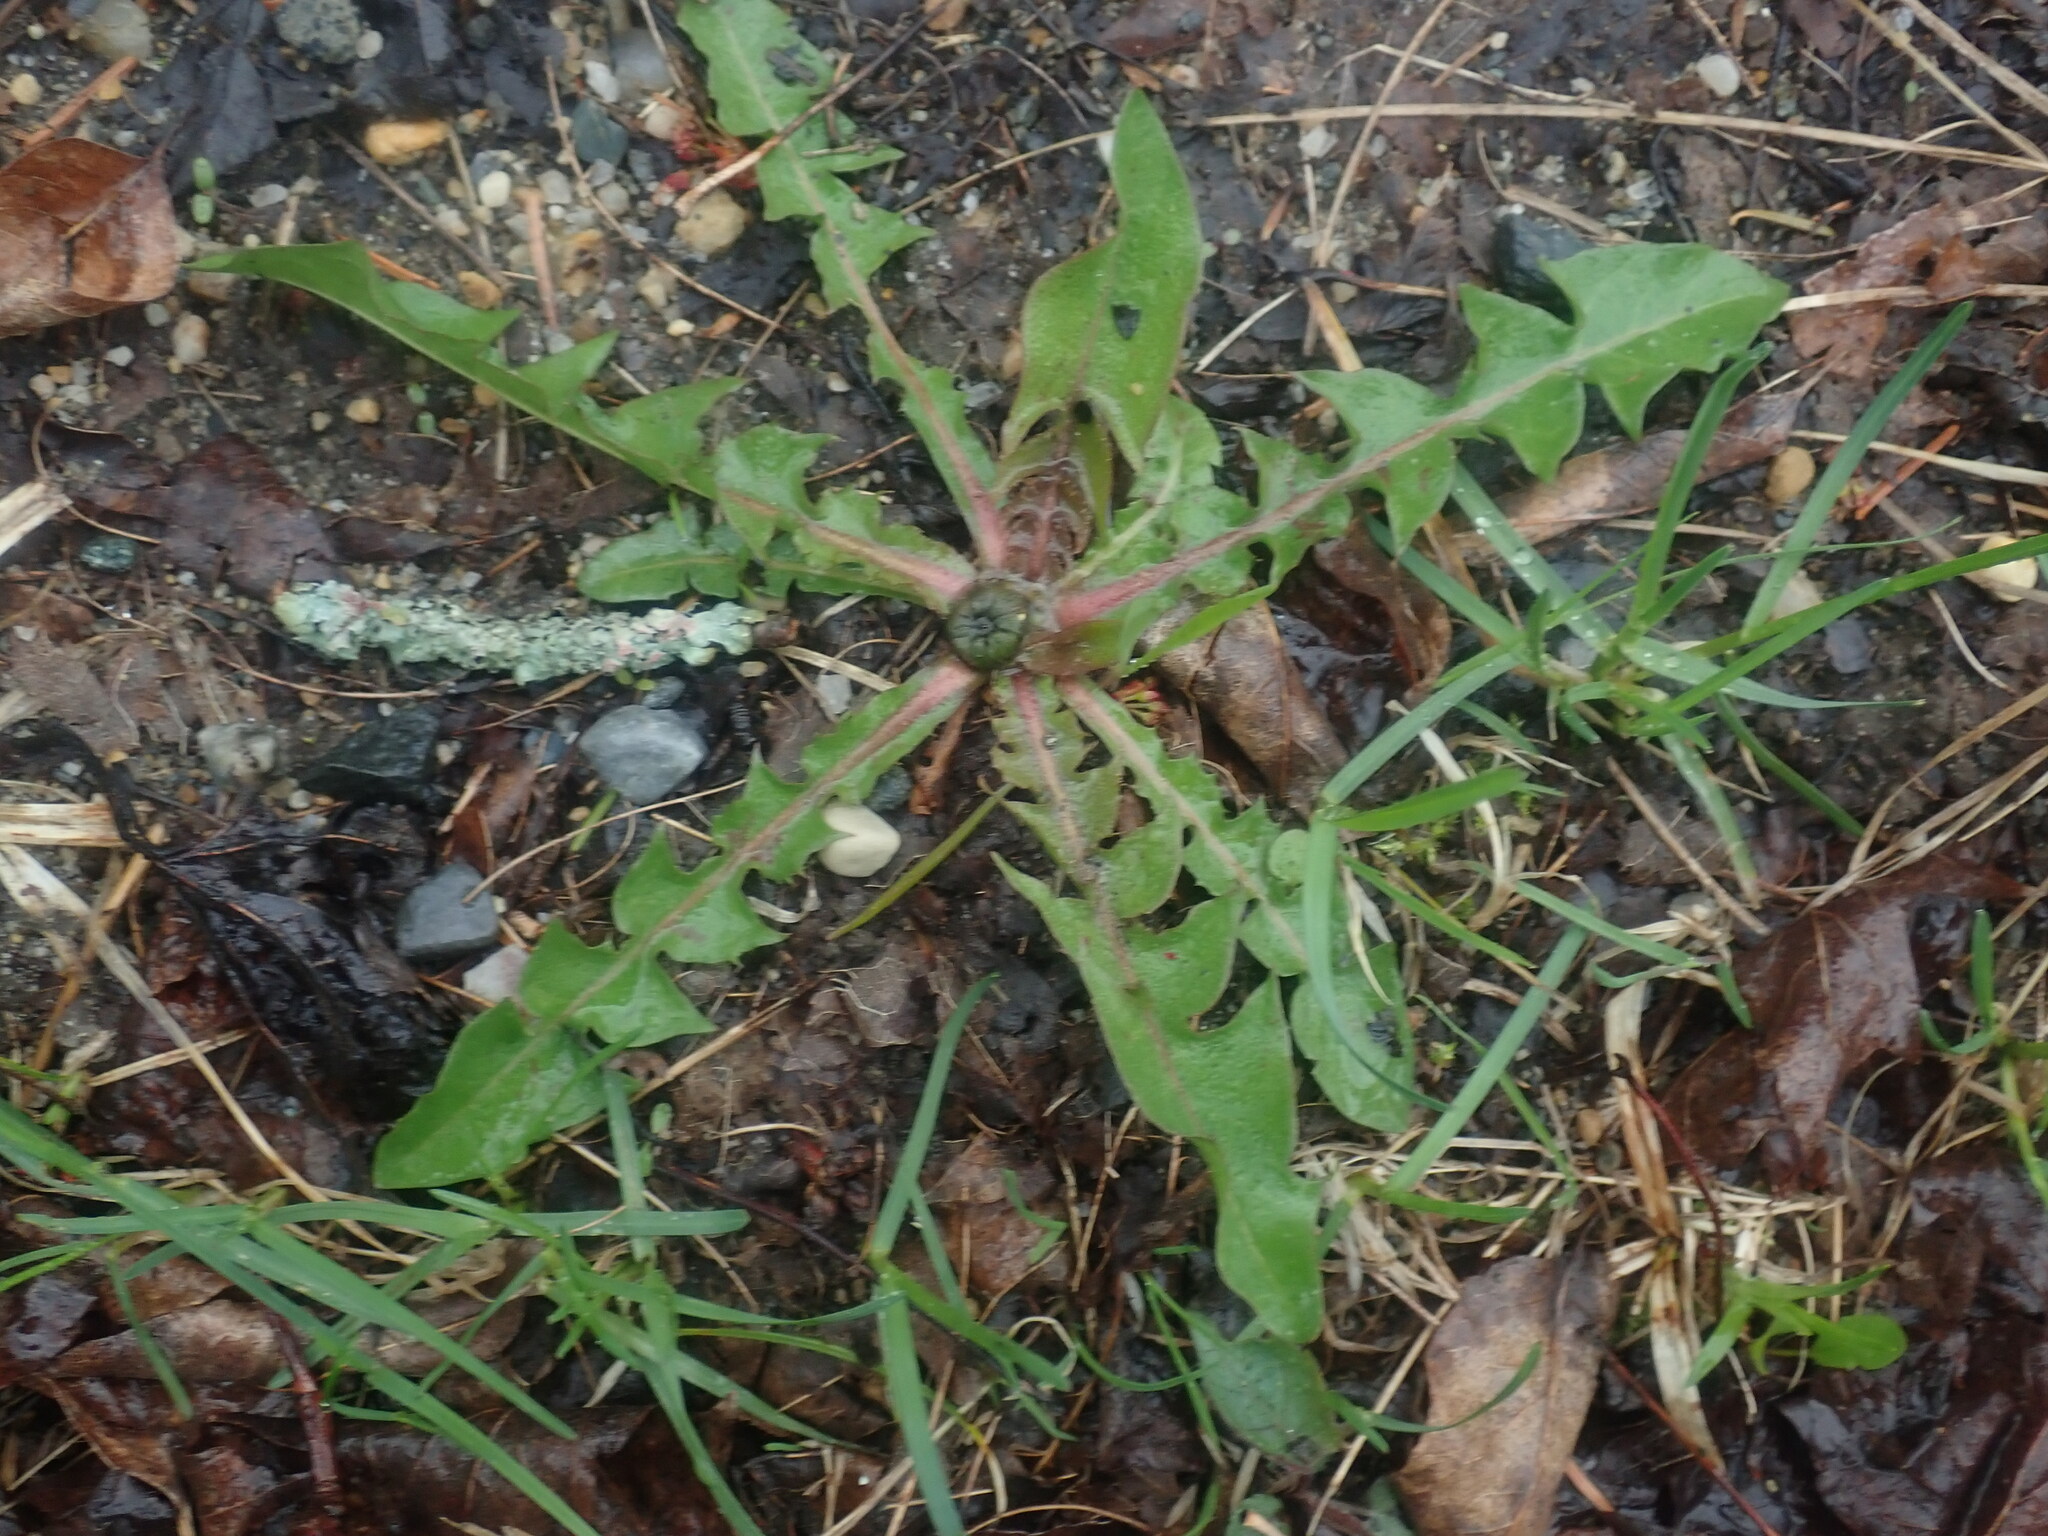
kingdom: Plantae
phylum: Tracheophyta
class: Magnoliopsida
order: Asterales
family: Asteraceae
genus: Taraxacum
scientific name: Taraxacum
